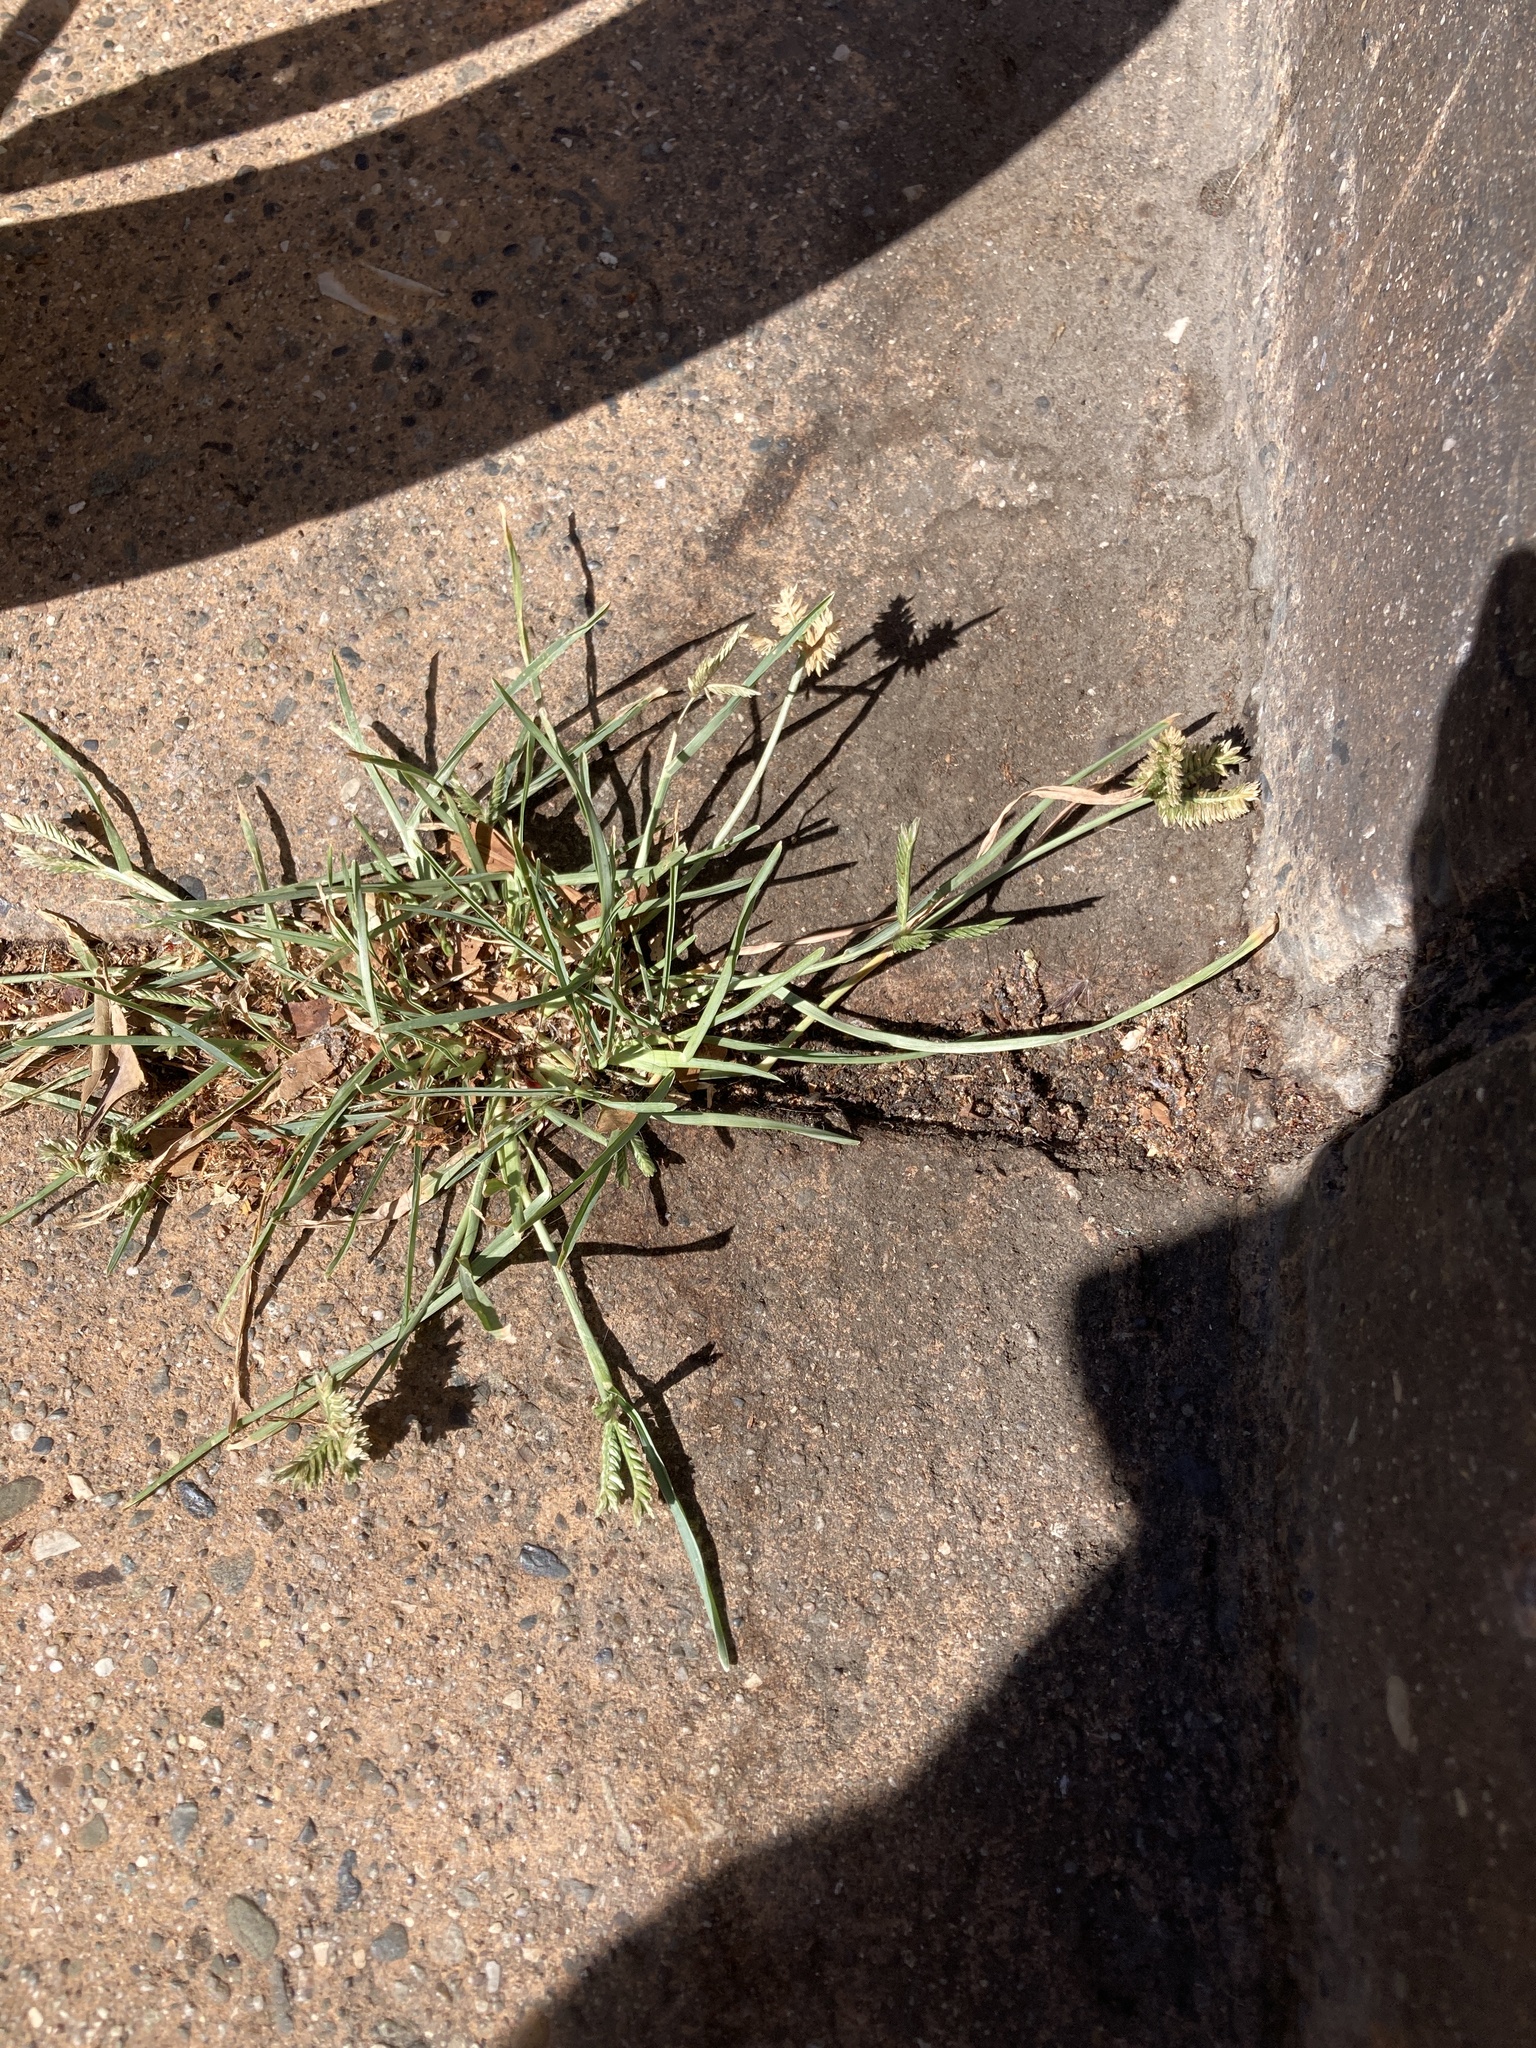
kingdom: Plantae
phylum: Tracheophyta
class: Liliopsida
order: Poales
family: Poaceae
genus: Eleusine
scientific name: Eleusine tristachya
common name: American yard-grass
